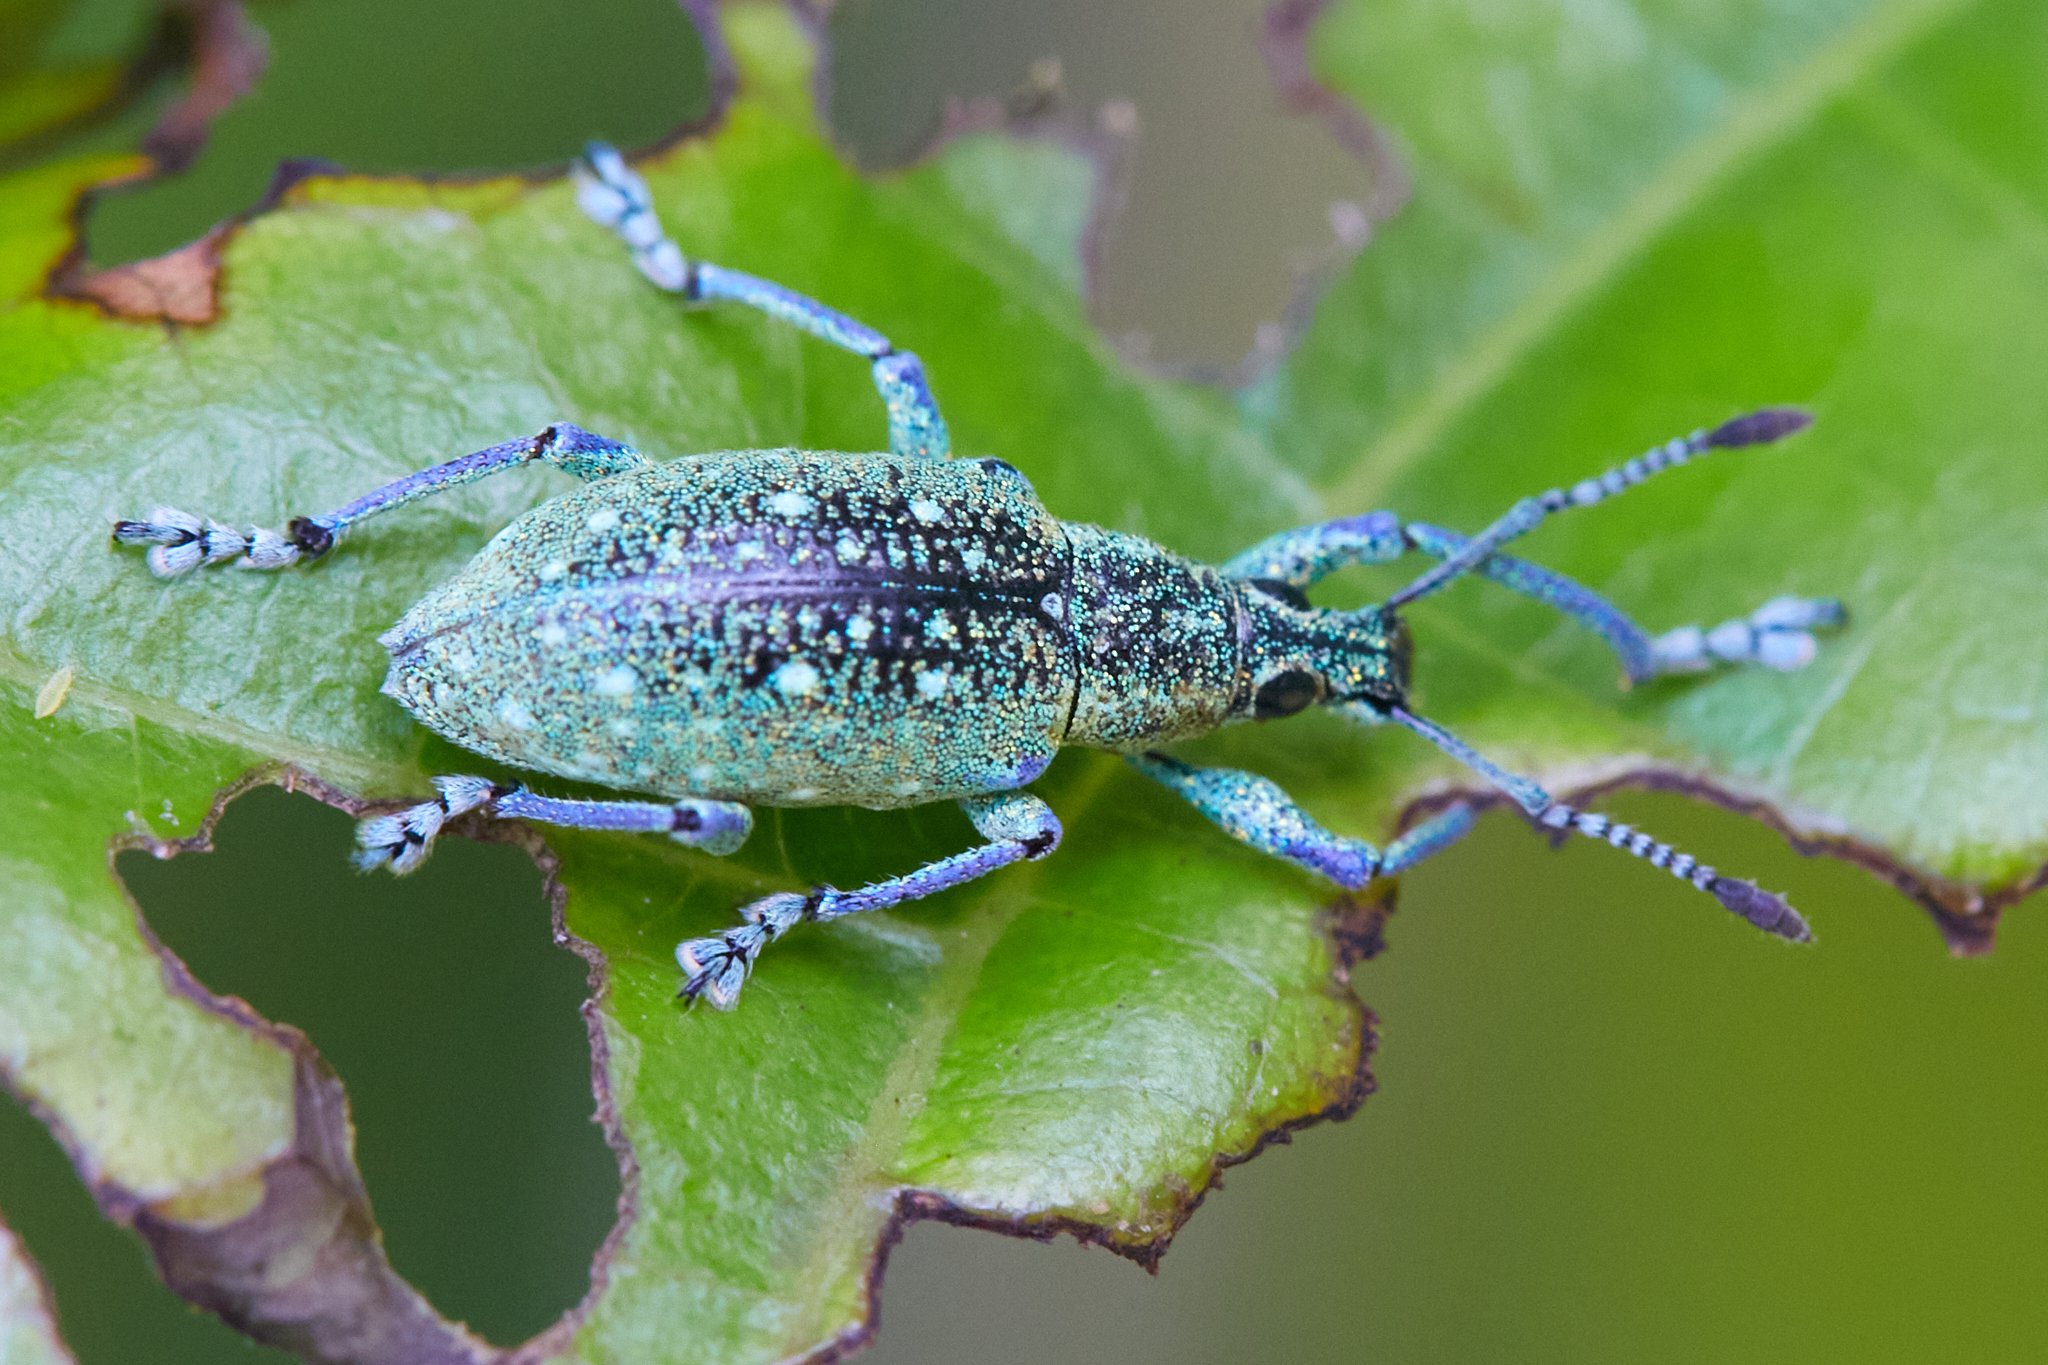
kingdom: Animalia
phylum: Arthropoda
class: Insecta
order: Coleoptera
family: Curculionidae
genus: Exophthalmus
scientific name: Exophthalmus jekelianus
